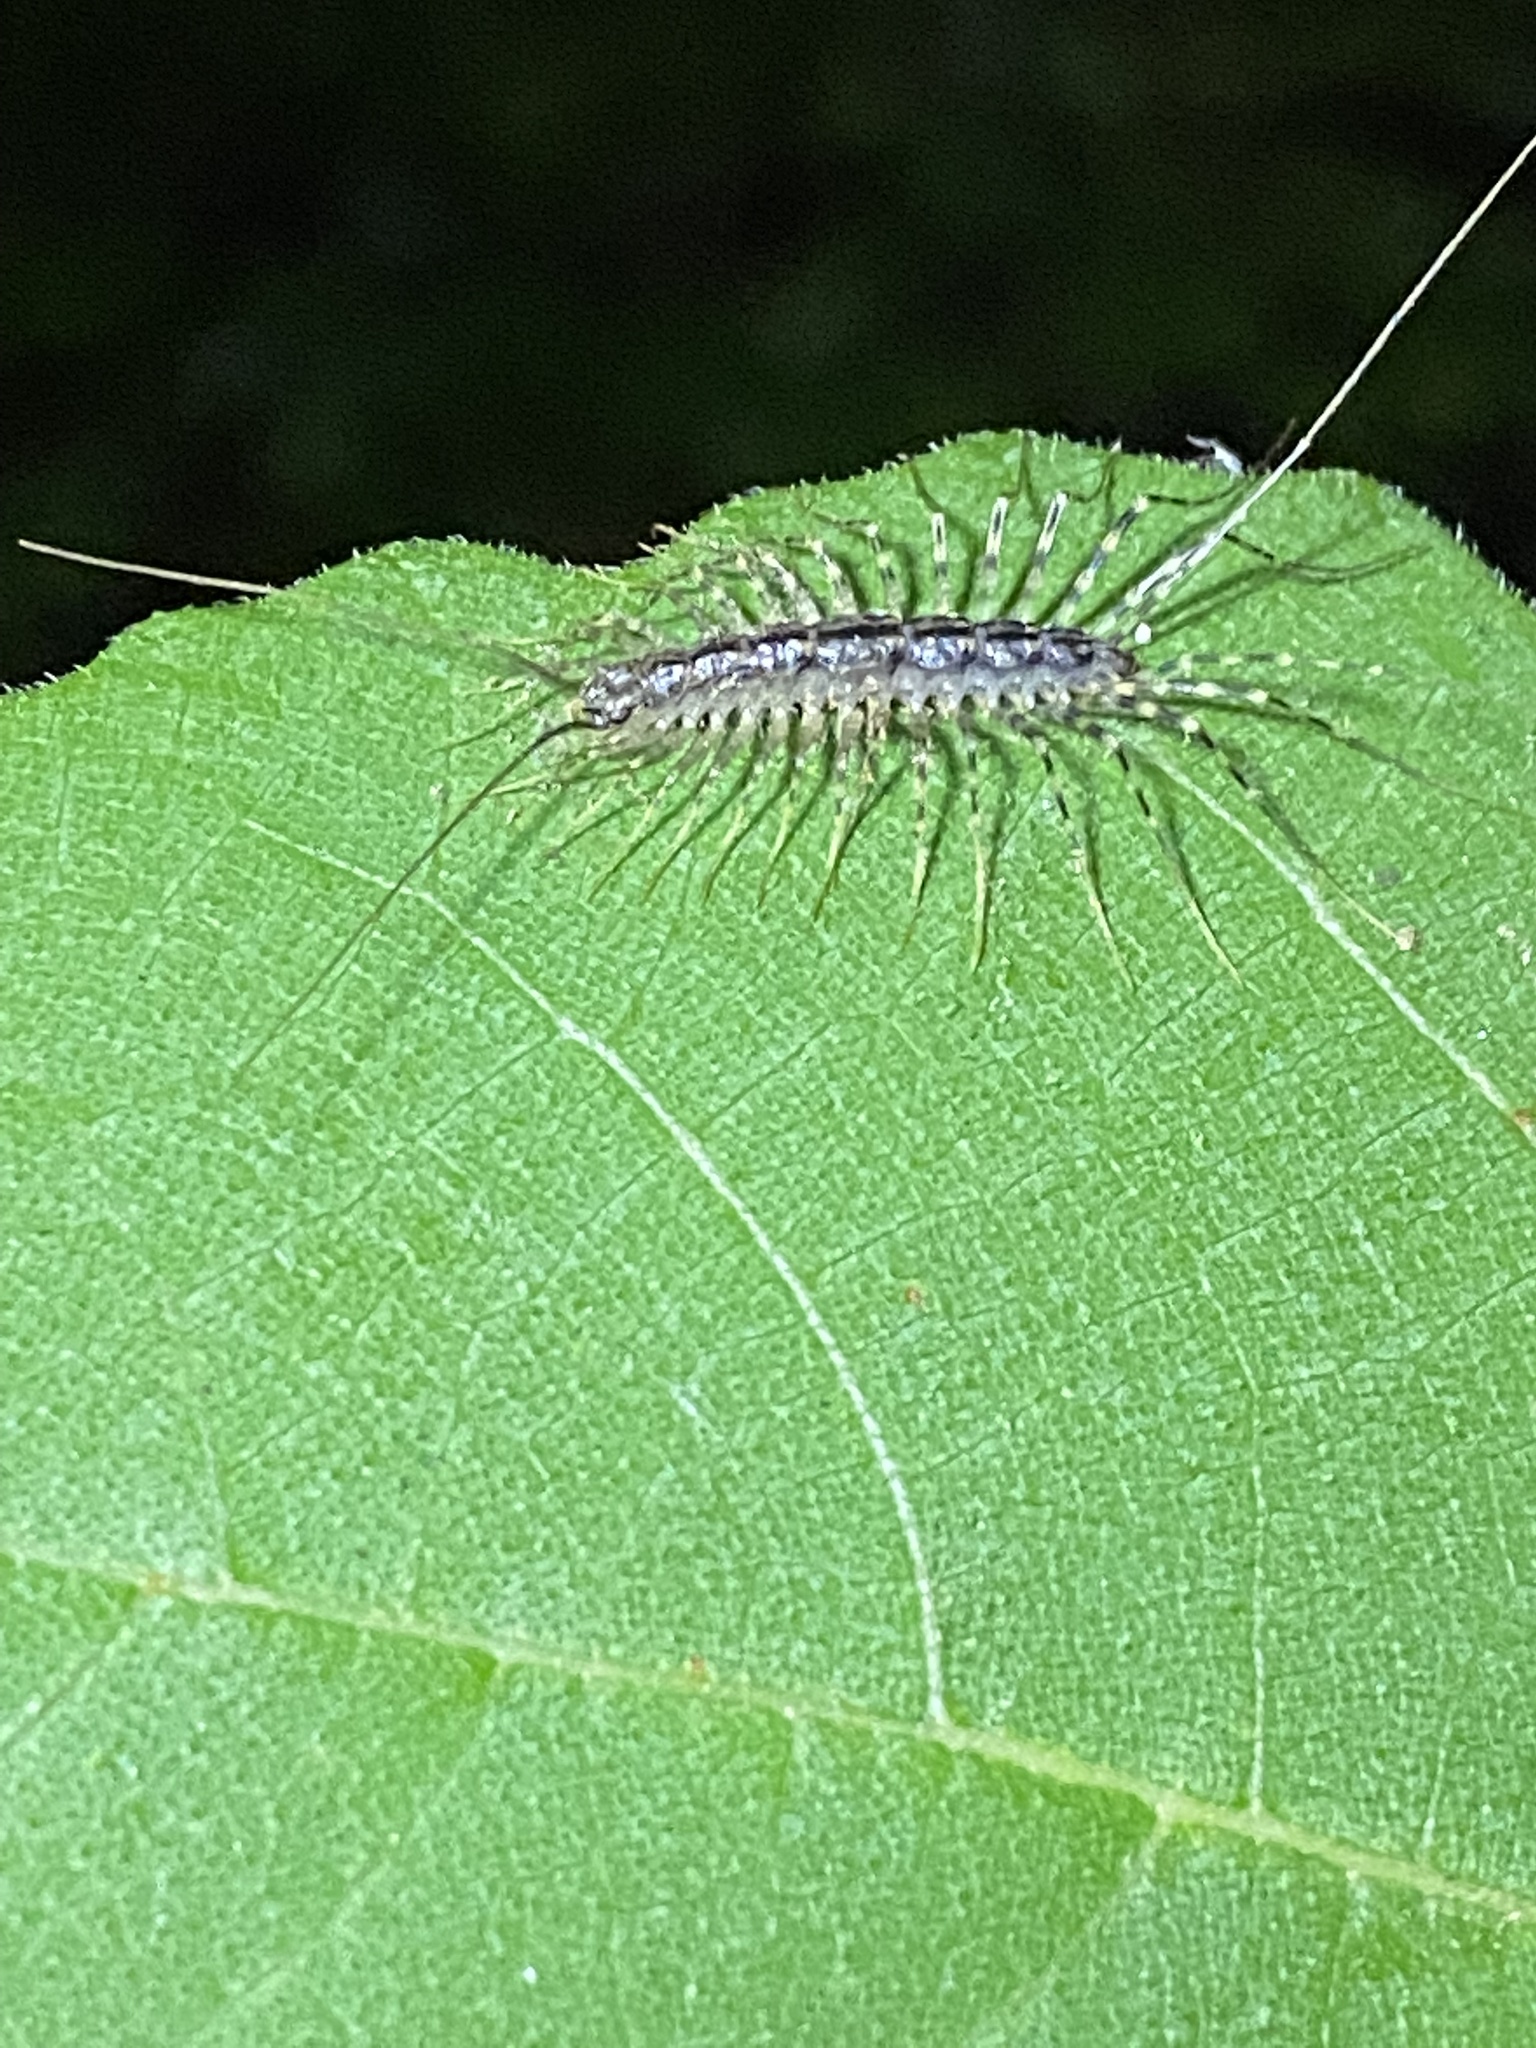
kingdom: Animalia
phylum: Arthropoda
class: Chilopoda
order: Scutigeromorpha
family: Scutigeridae
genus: Scutigera
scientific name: Scutigera coleoptrata
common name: House centipede
